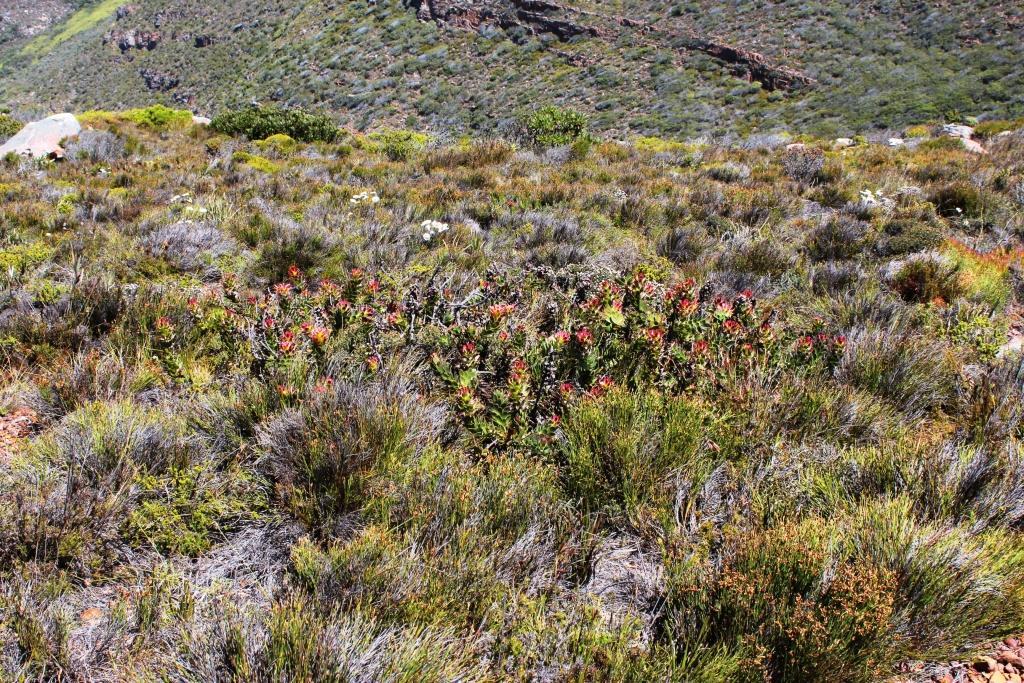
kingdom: Plantae
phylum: Tracheophyta
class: Magnoliopsida
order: Proteales
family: Proteaceae
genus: Mimetes
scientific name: Mimetes cucullatus
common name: Common pagoda
